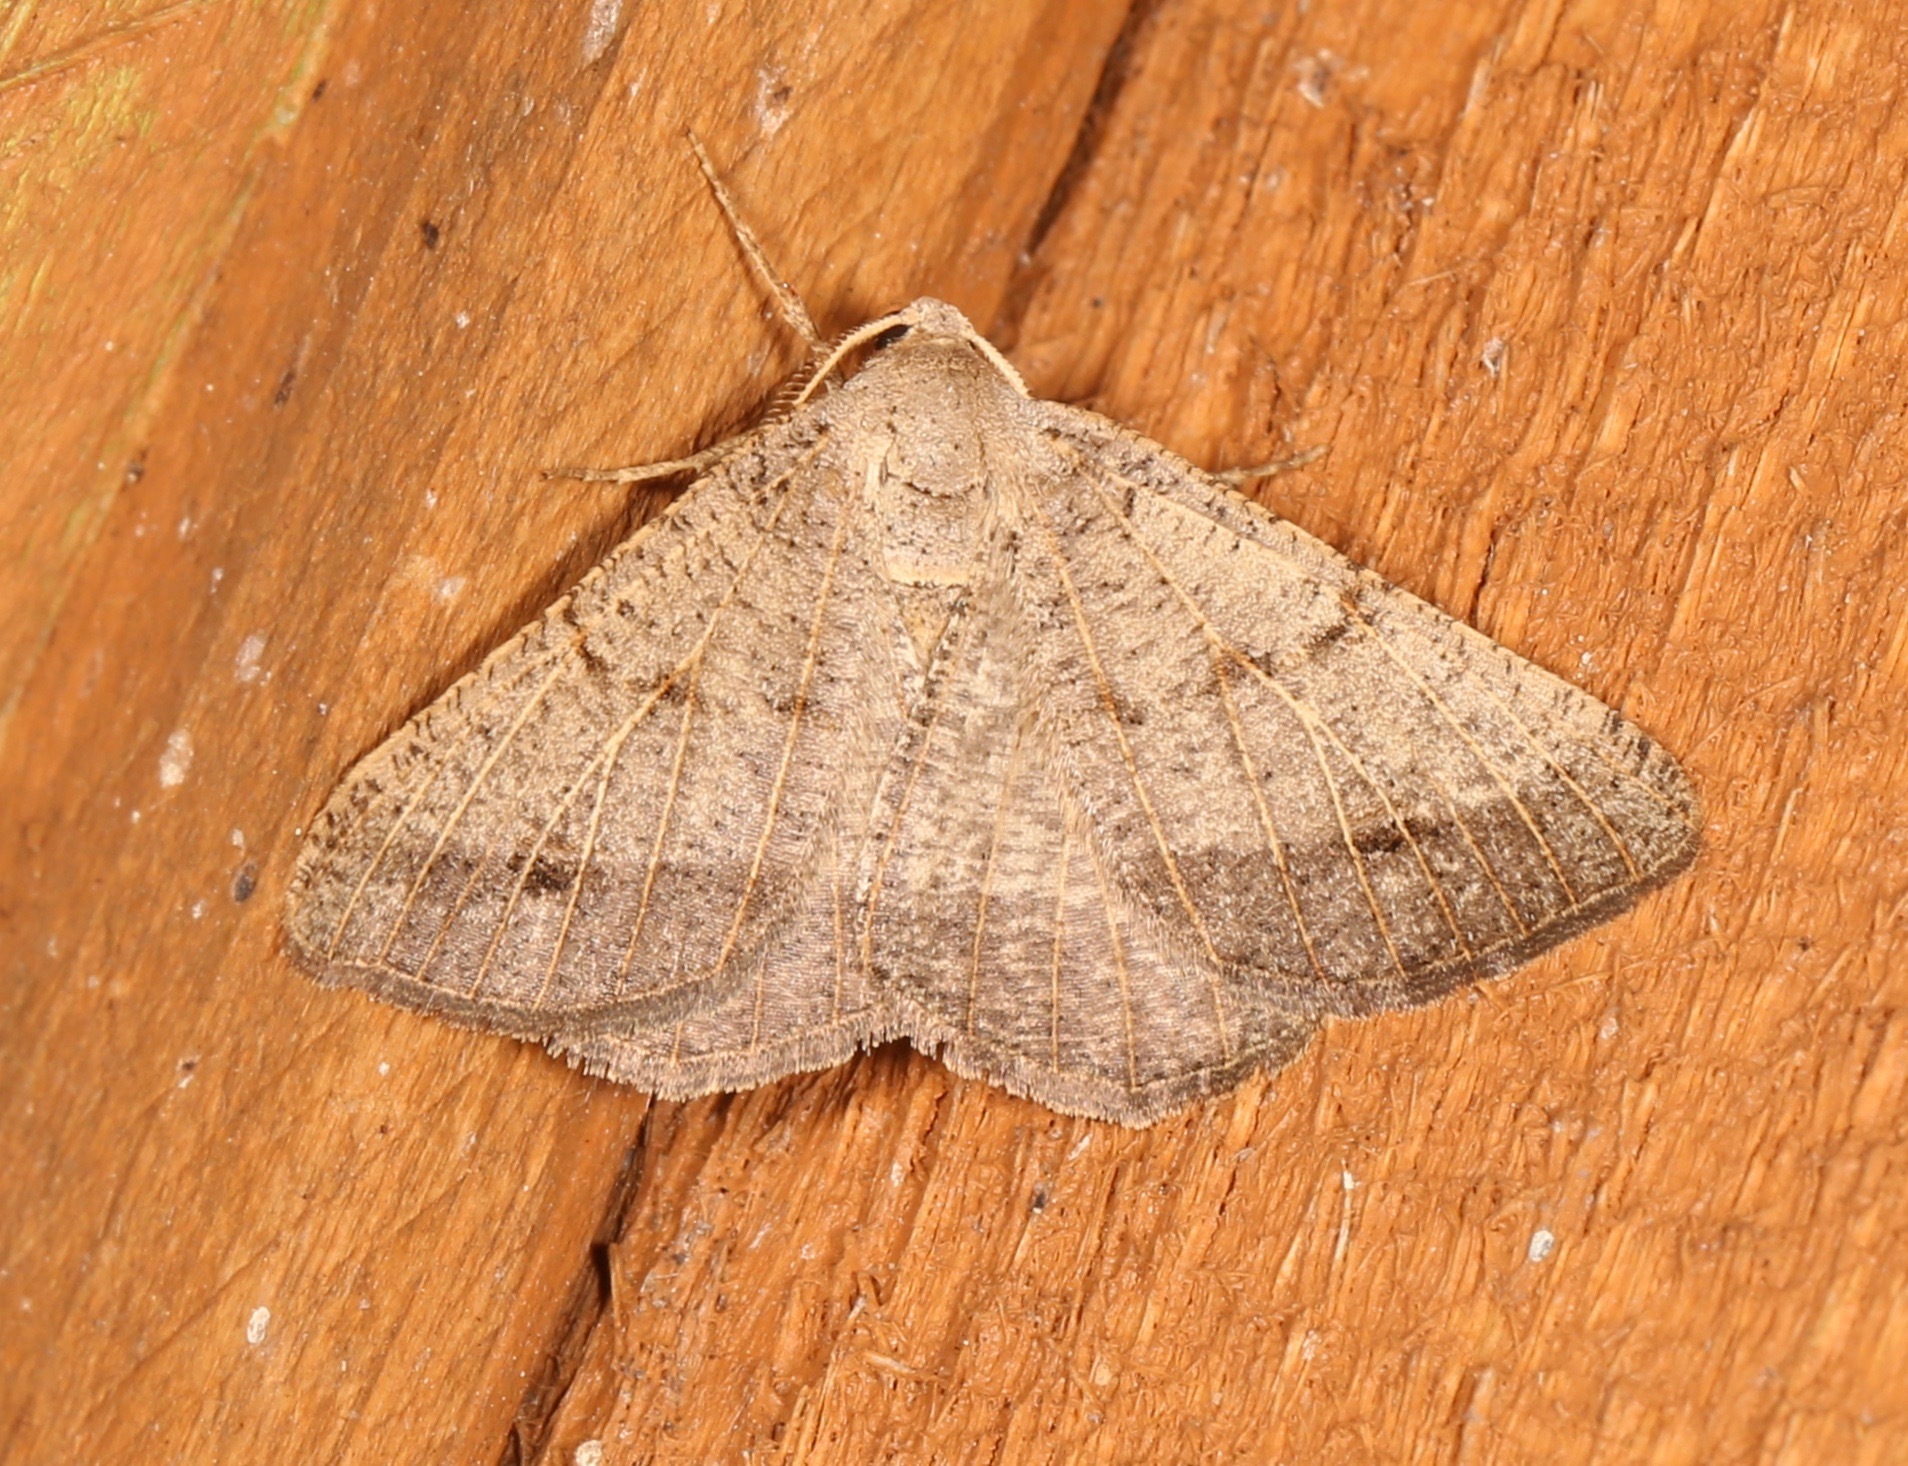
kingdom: Animalia
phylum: Arthropoda
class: Insecta
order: Lepidoptera
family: Geometridae
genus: Isturgia
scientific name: Isturgia dislocaria
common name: Pale-viened enconista
